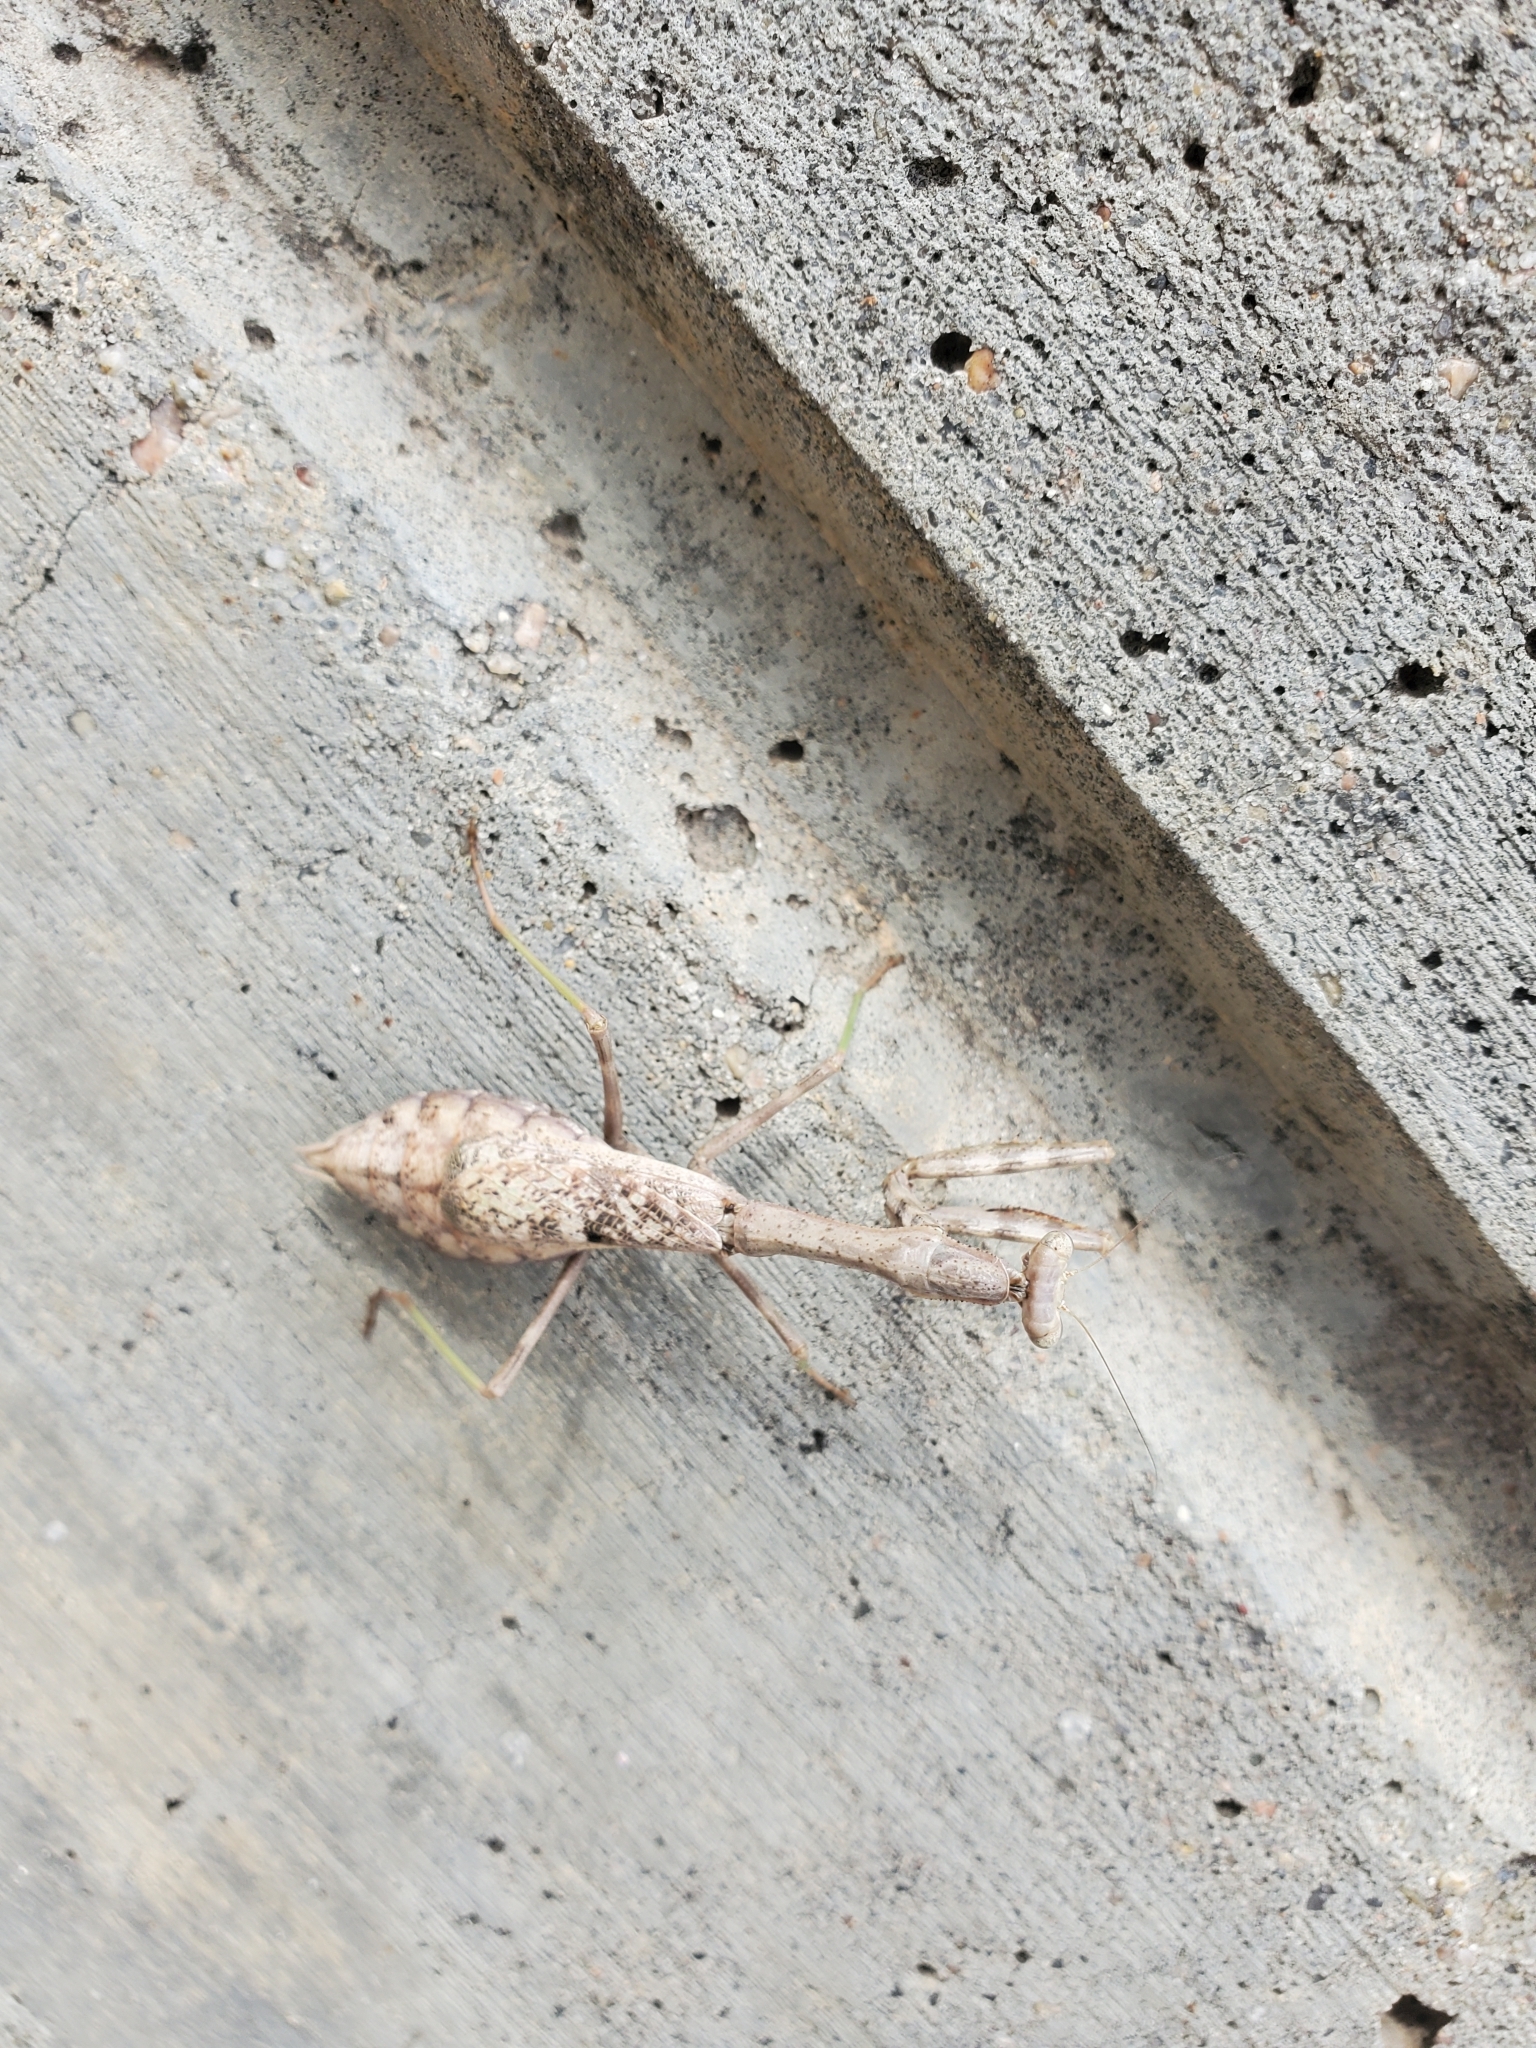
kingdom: Animalia
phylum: Arthropoda
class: Insecta
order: Mantodea
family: Mantidae
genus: Stagmomantis
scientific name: Stagmomantis carolina
